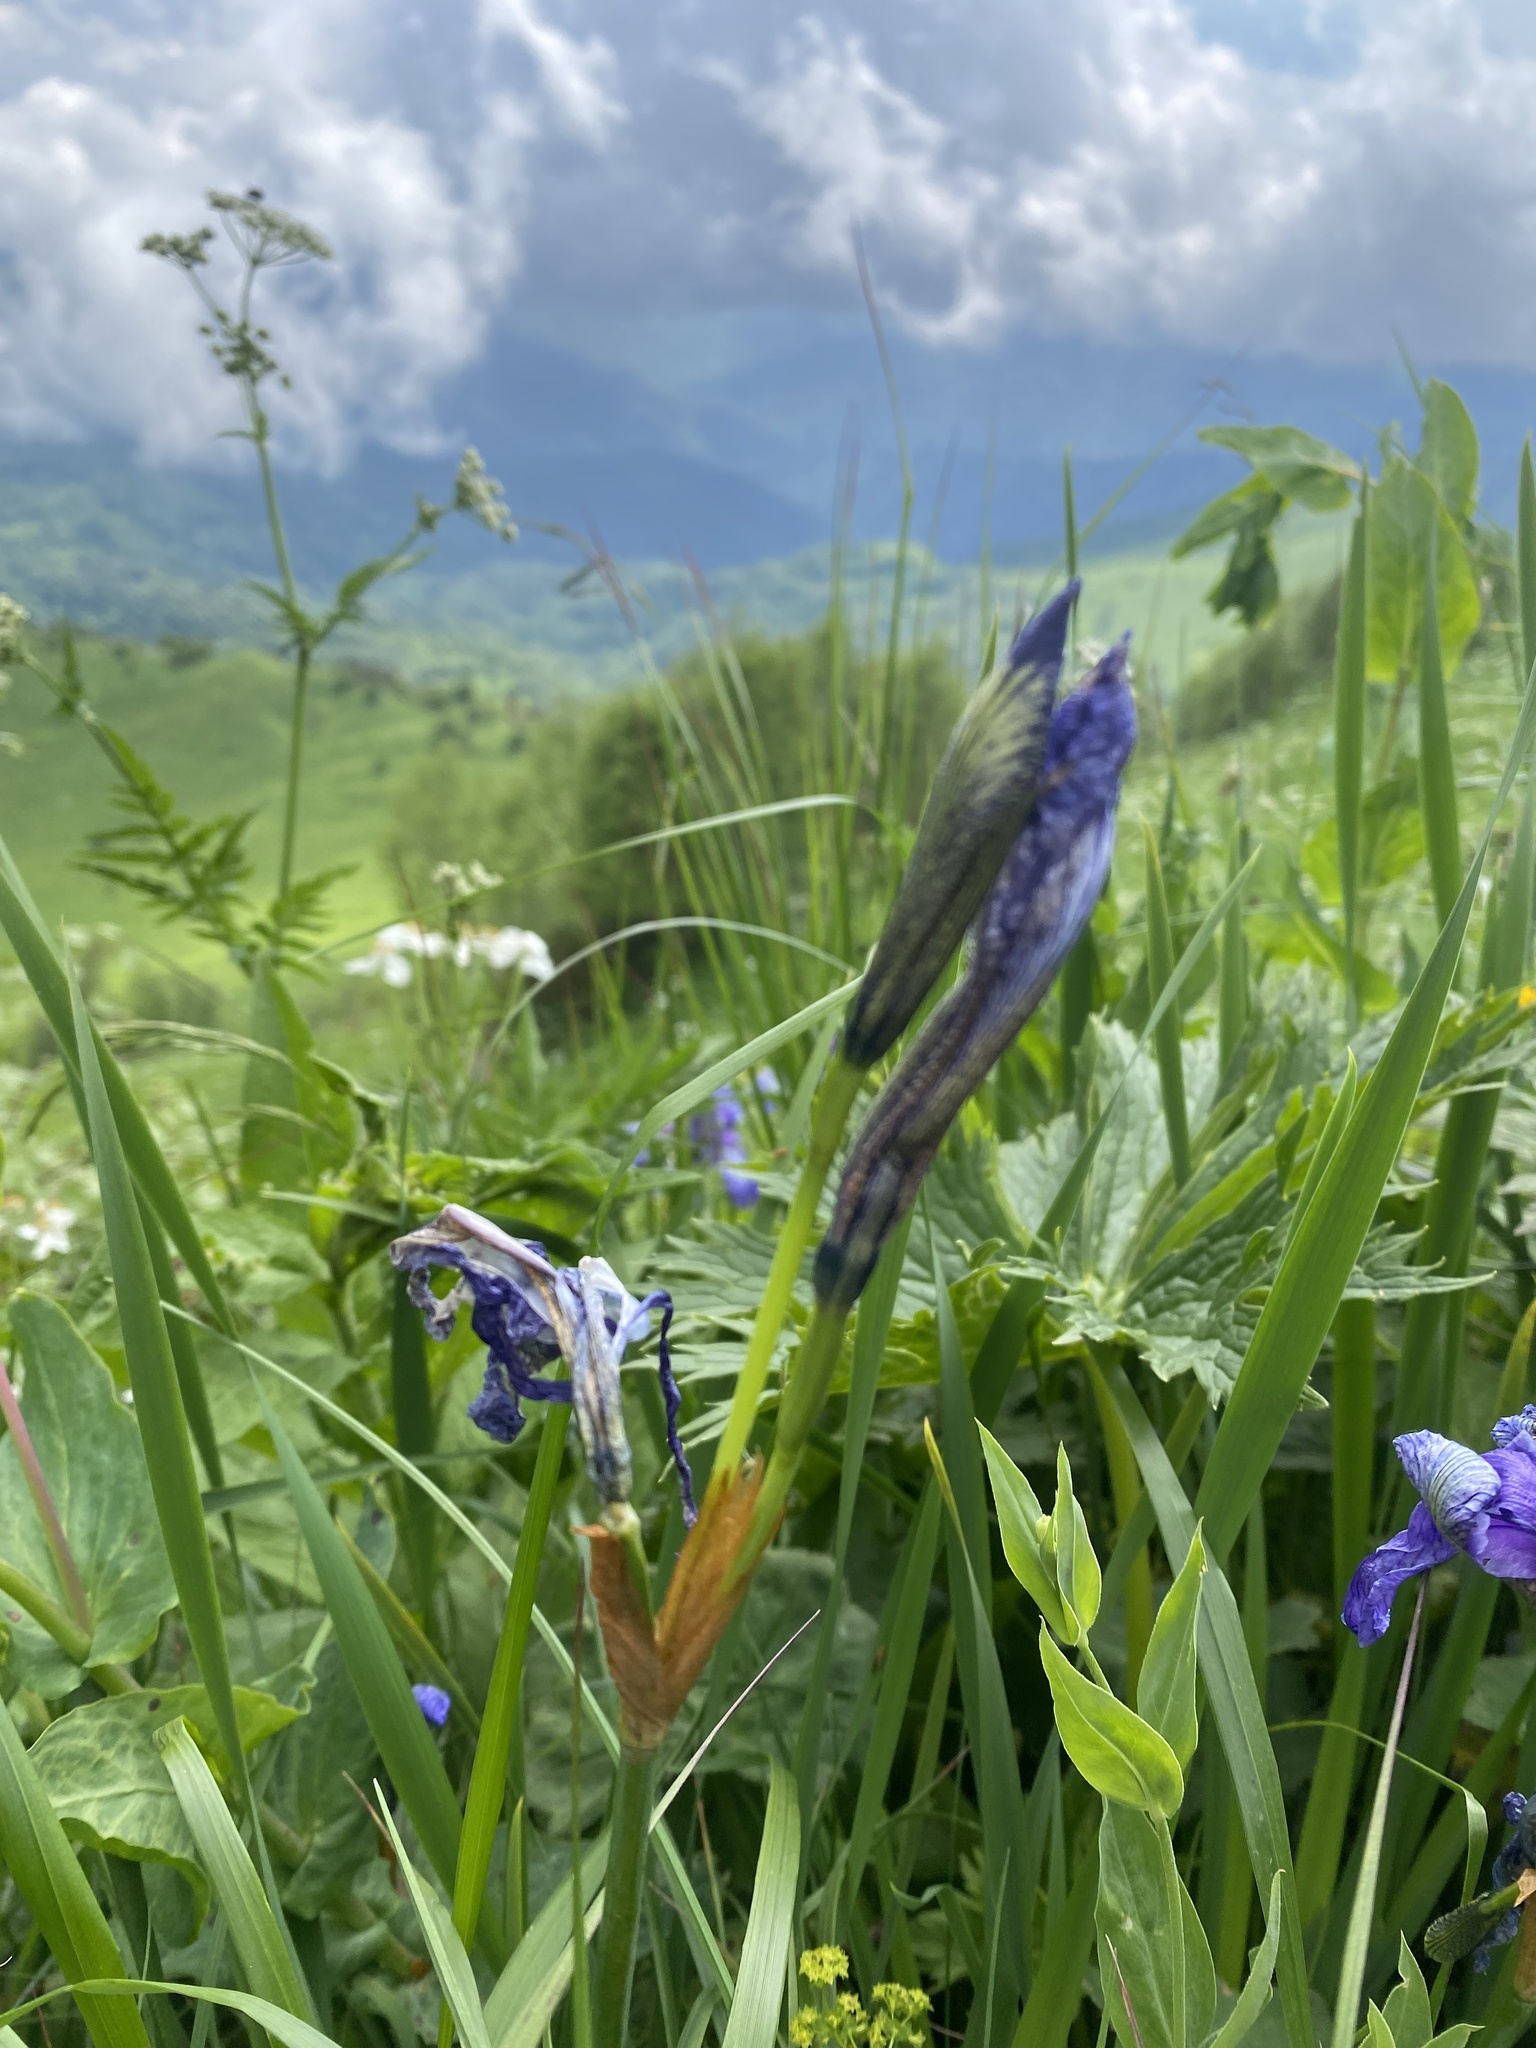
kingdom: Plantae
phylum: Tracheophyta
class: Liliopsida
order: Asparagales
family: Iridaceae
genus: Iris
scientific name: Iris sibirica
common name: Siberian iris
